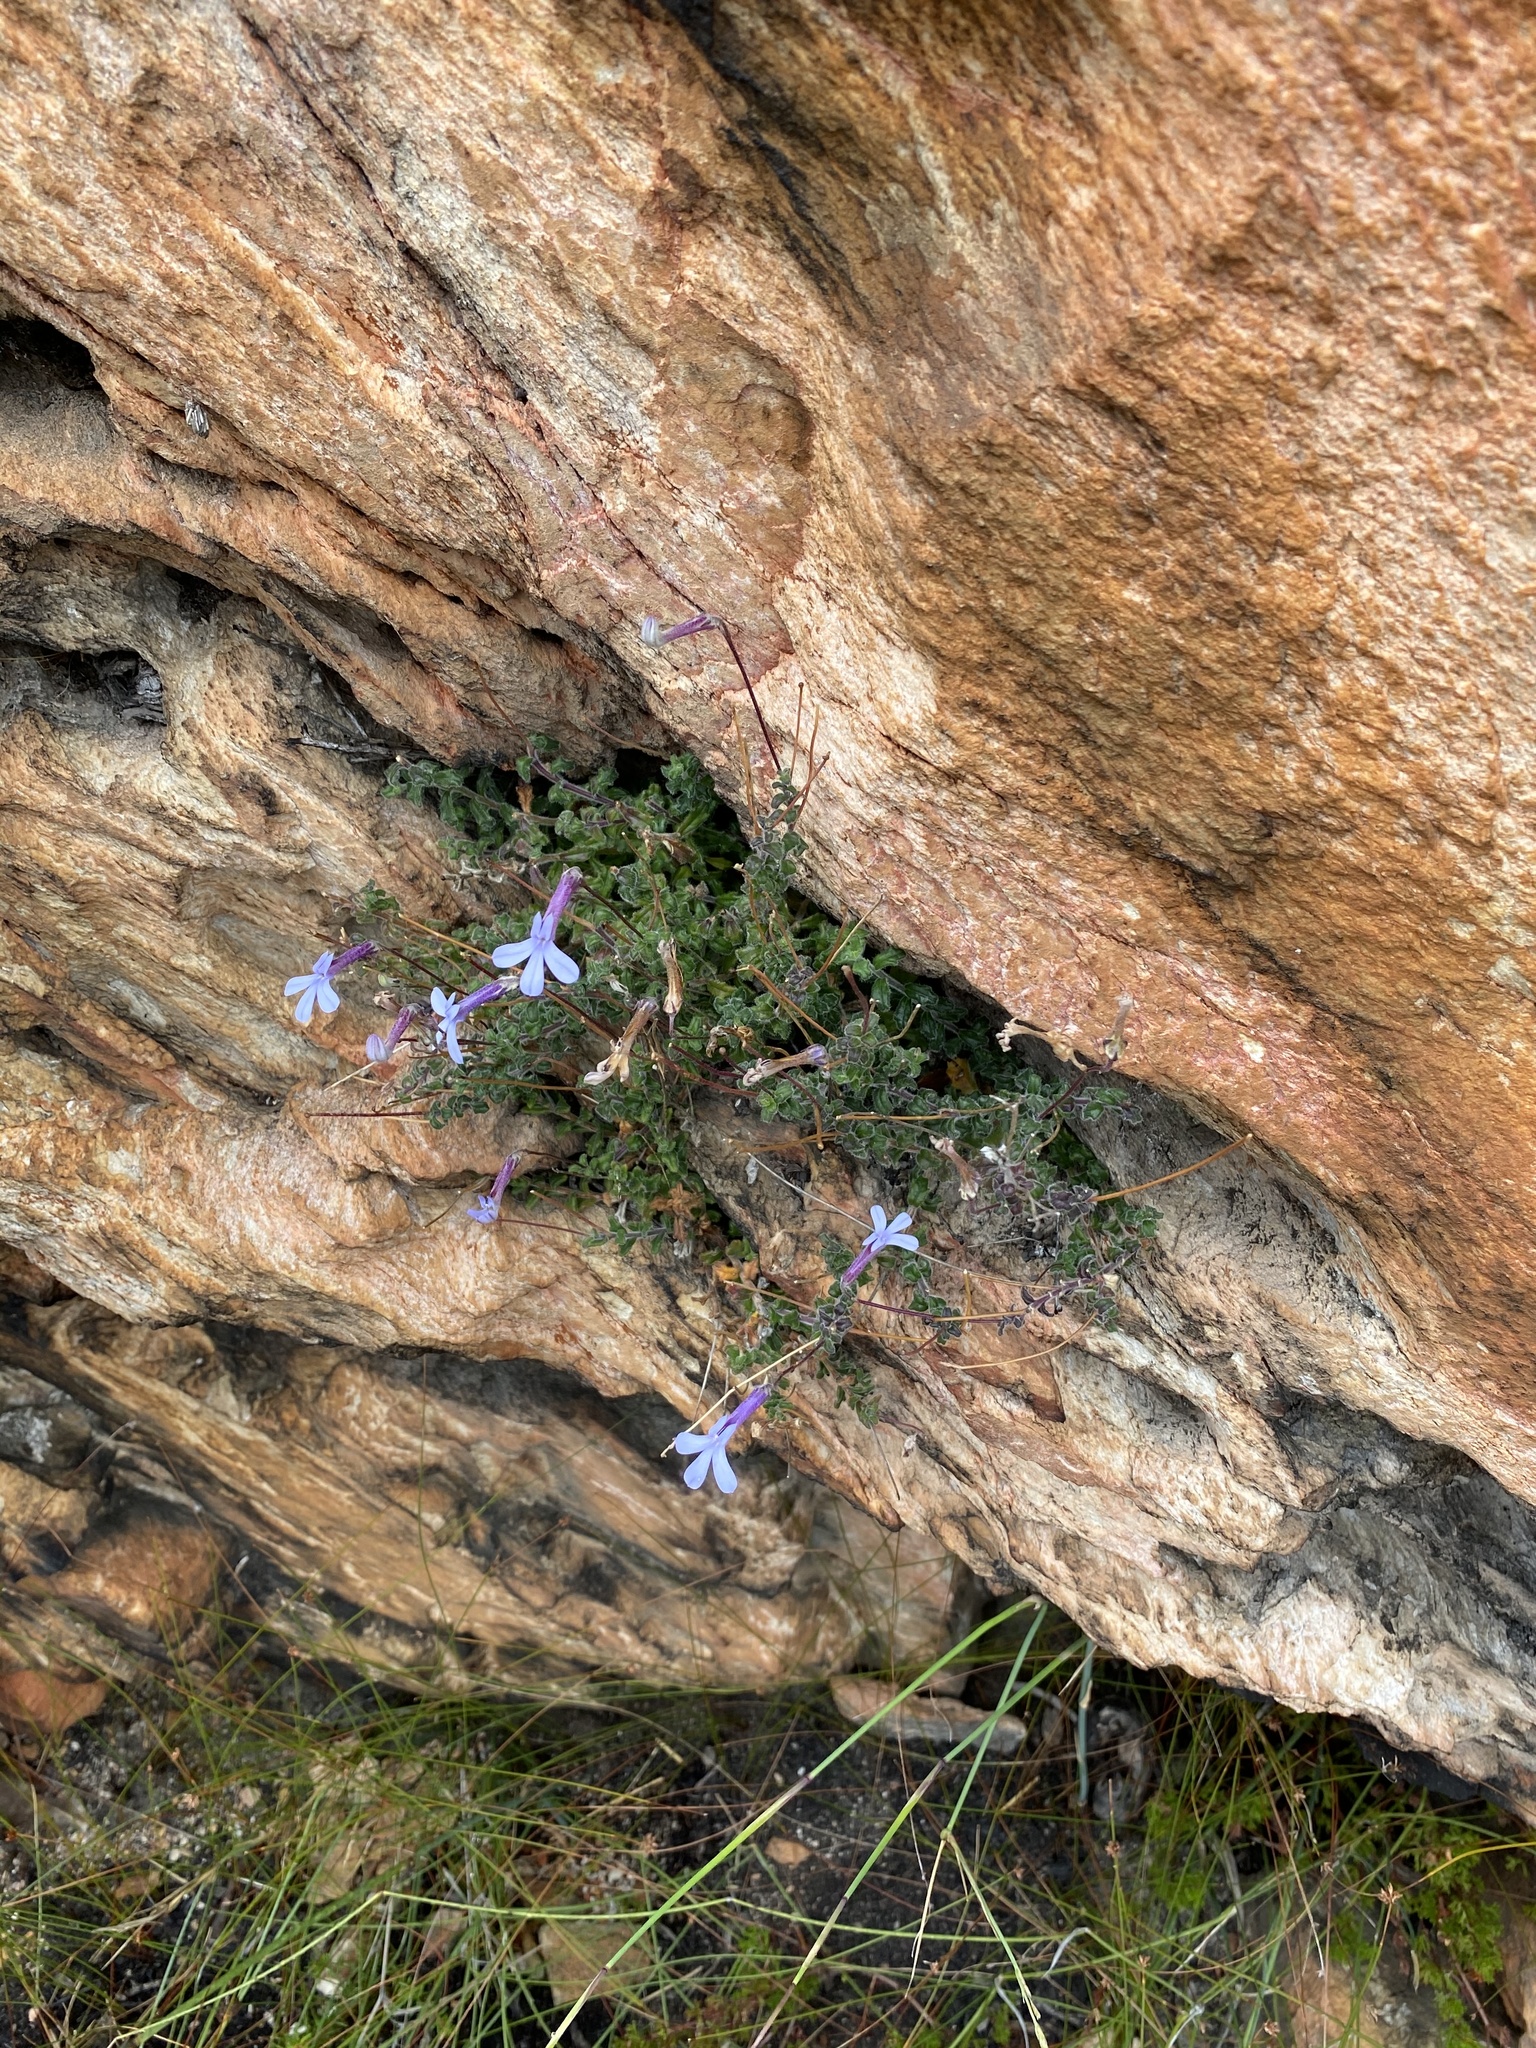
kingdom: Plantae
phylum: Tracheophyta
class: Magnoliopsida
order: Asterales
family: Campanulaceae
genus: Lobelia
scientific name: Lobelia dichroma
